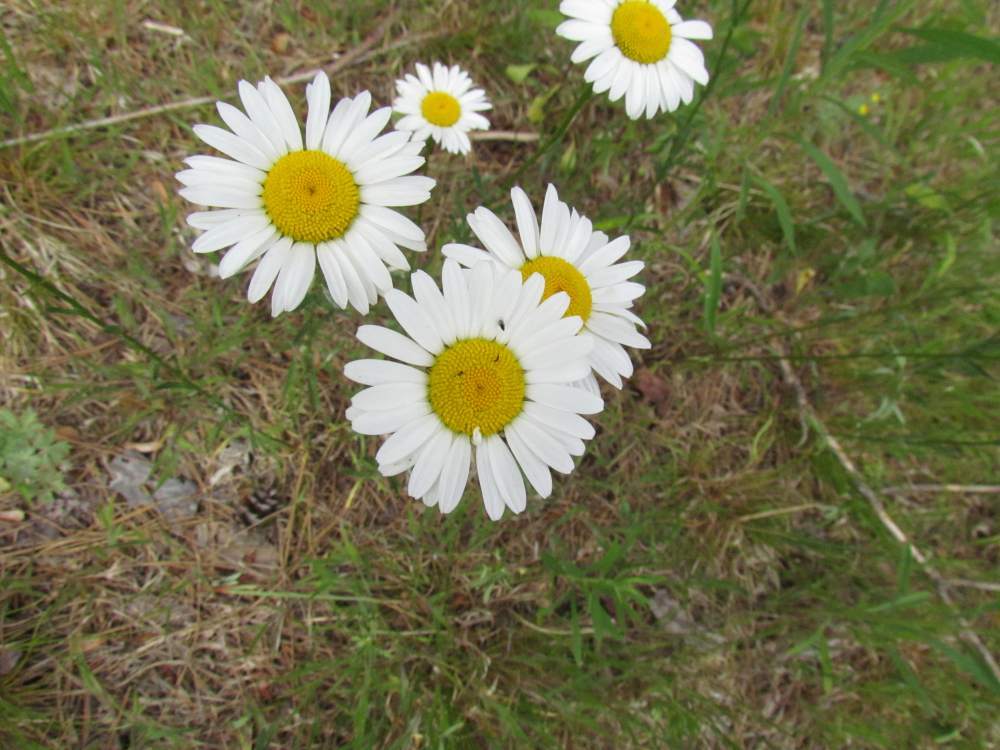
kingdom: Plantae
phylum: Tracheophyta
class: Magnoliopsida
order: Asterales
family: Asteraceae
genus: Leucanthemum
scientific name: Leucanthemum vulgare
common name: Oxeye daisy
